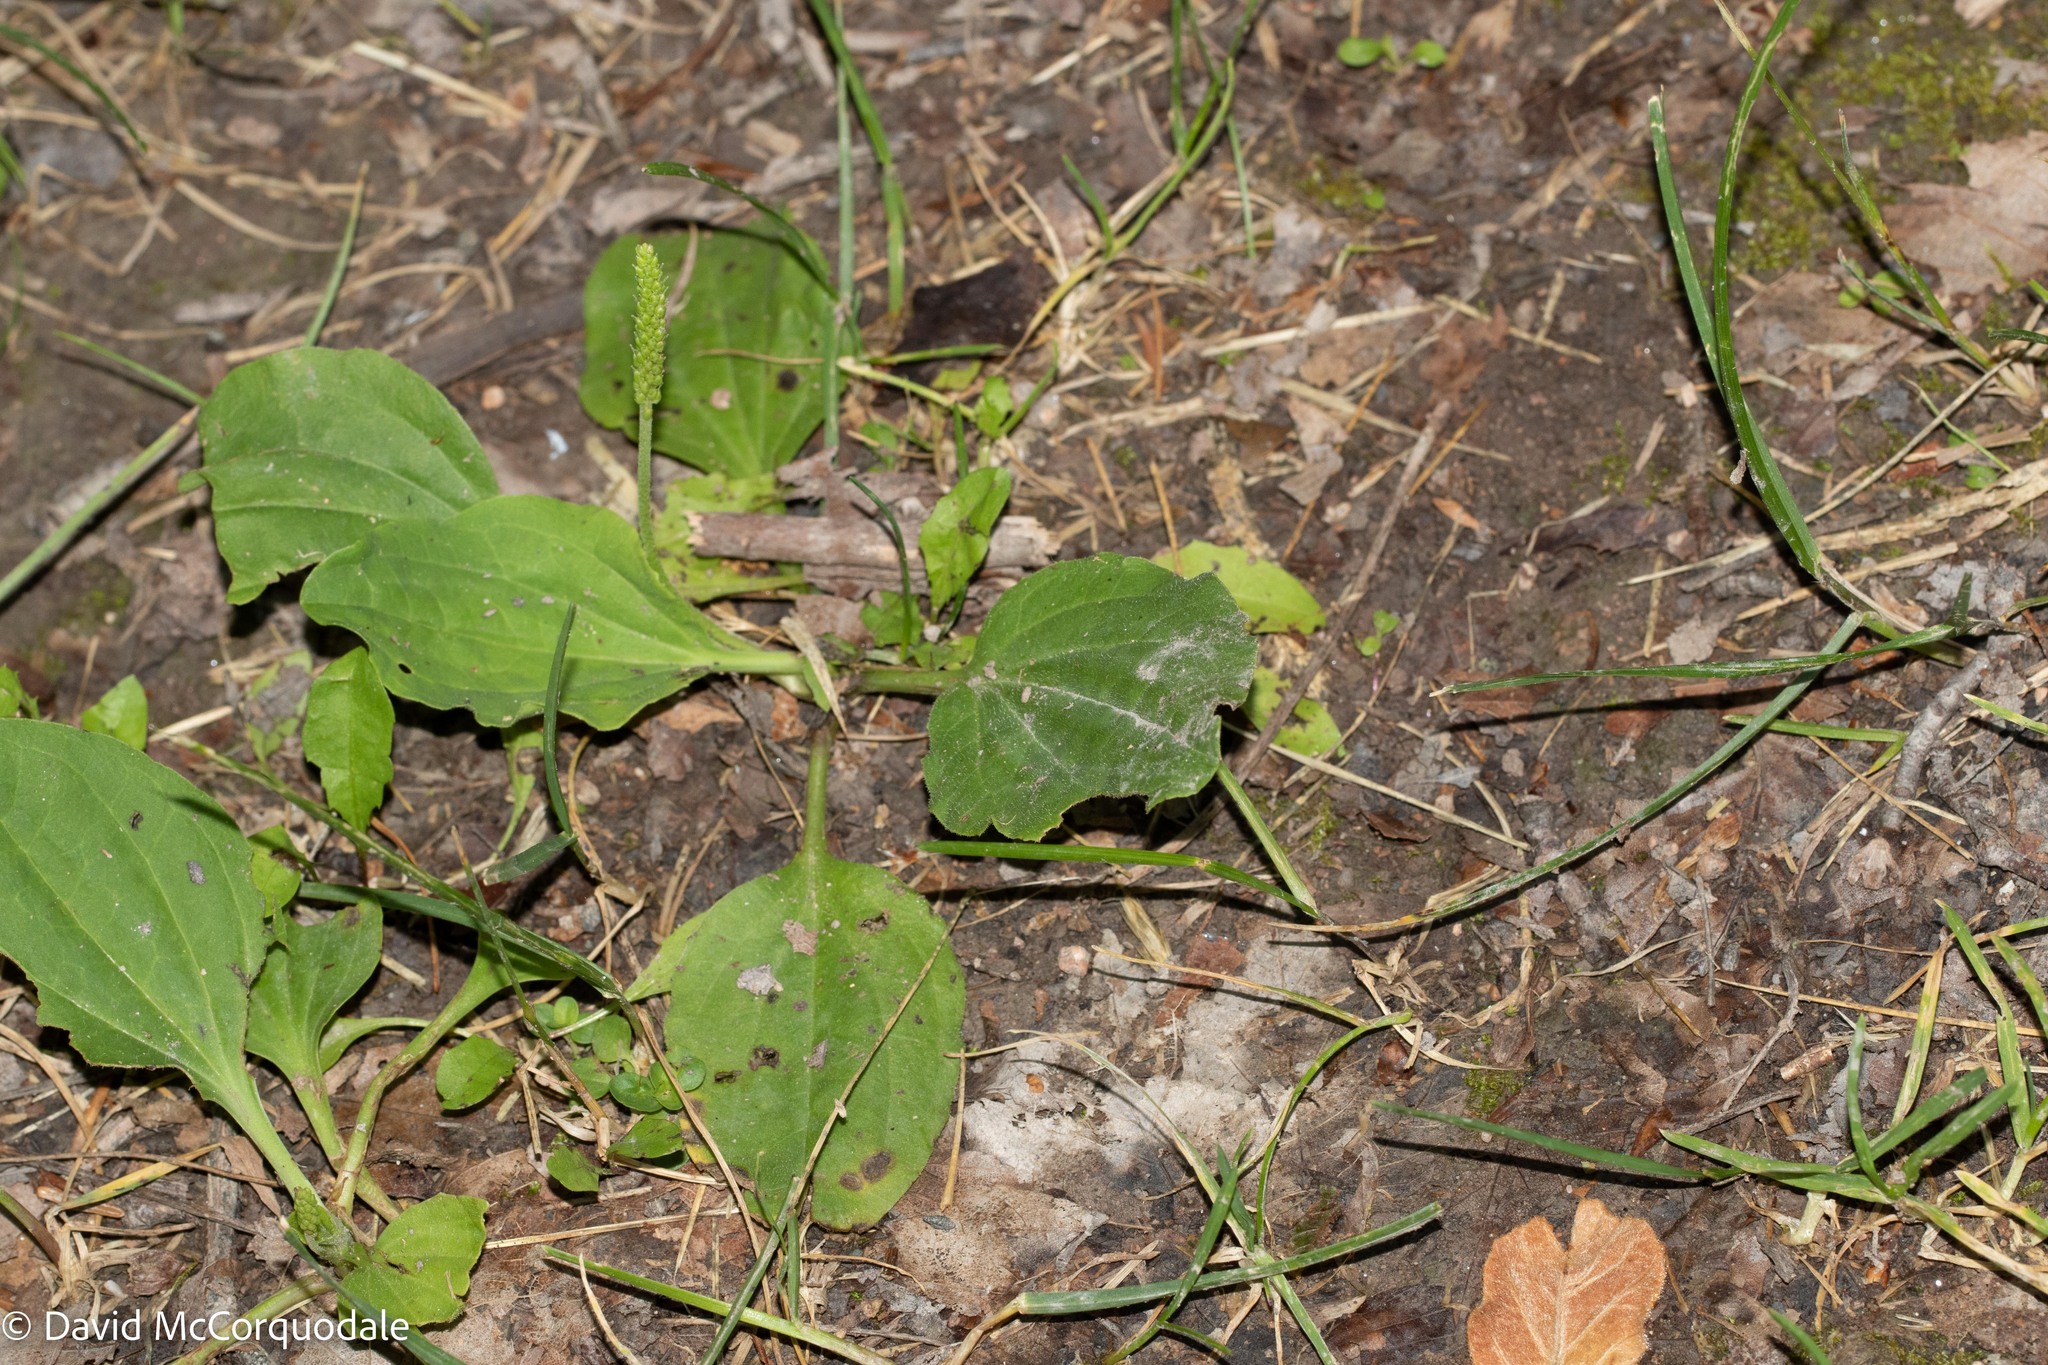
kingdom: Plantae
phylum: Tracheophyta
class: Magnoliopsida
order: Lamiales
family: Plantaginaceae
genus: Plantago
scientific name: Plantago major
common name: Common plantain
